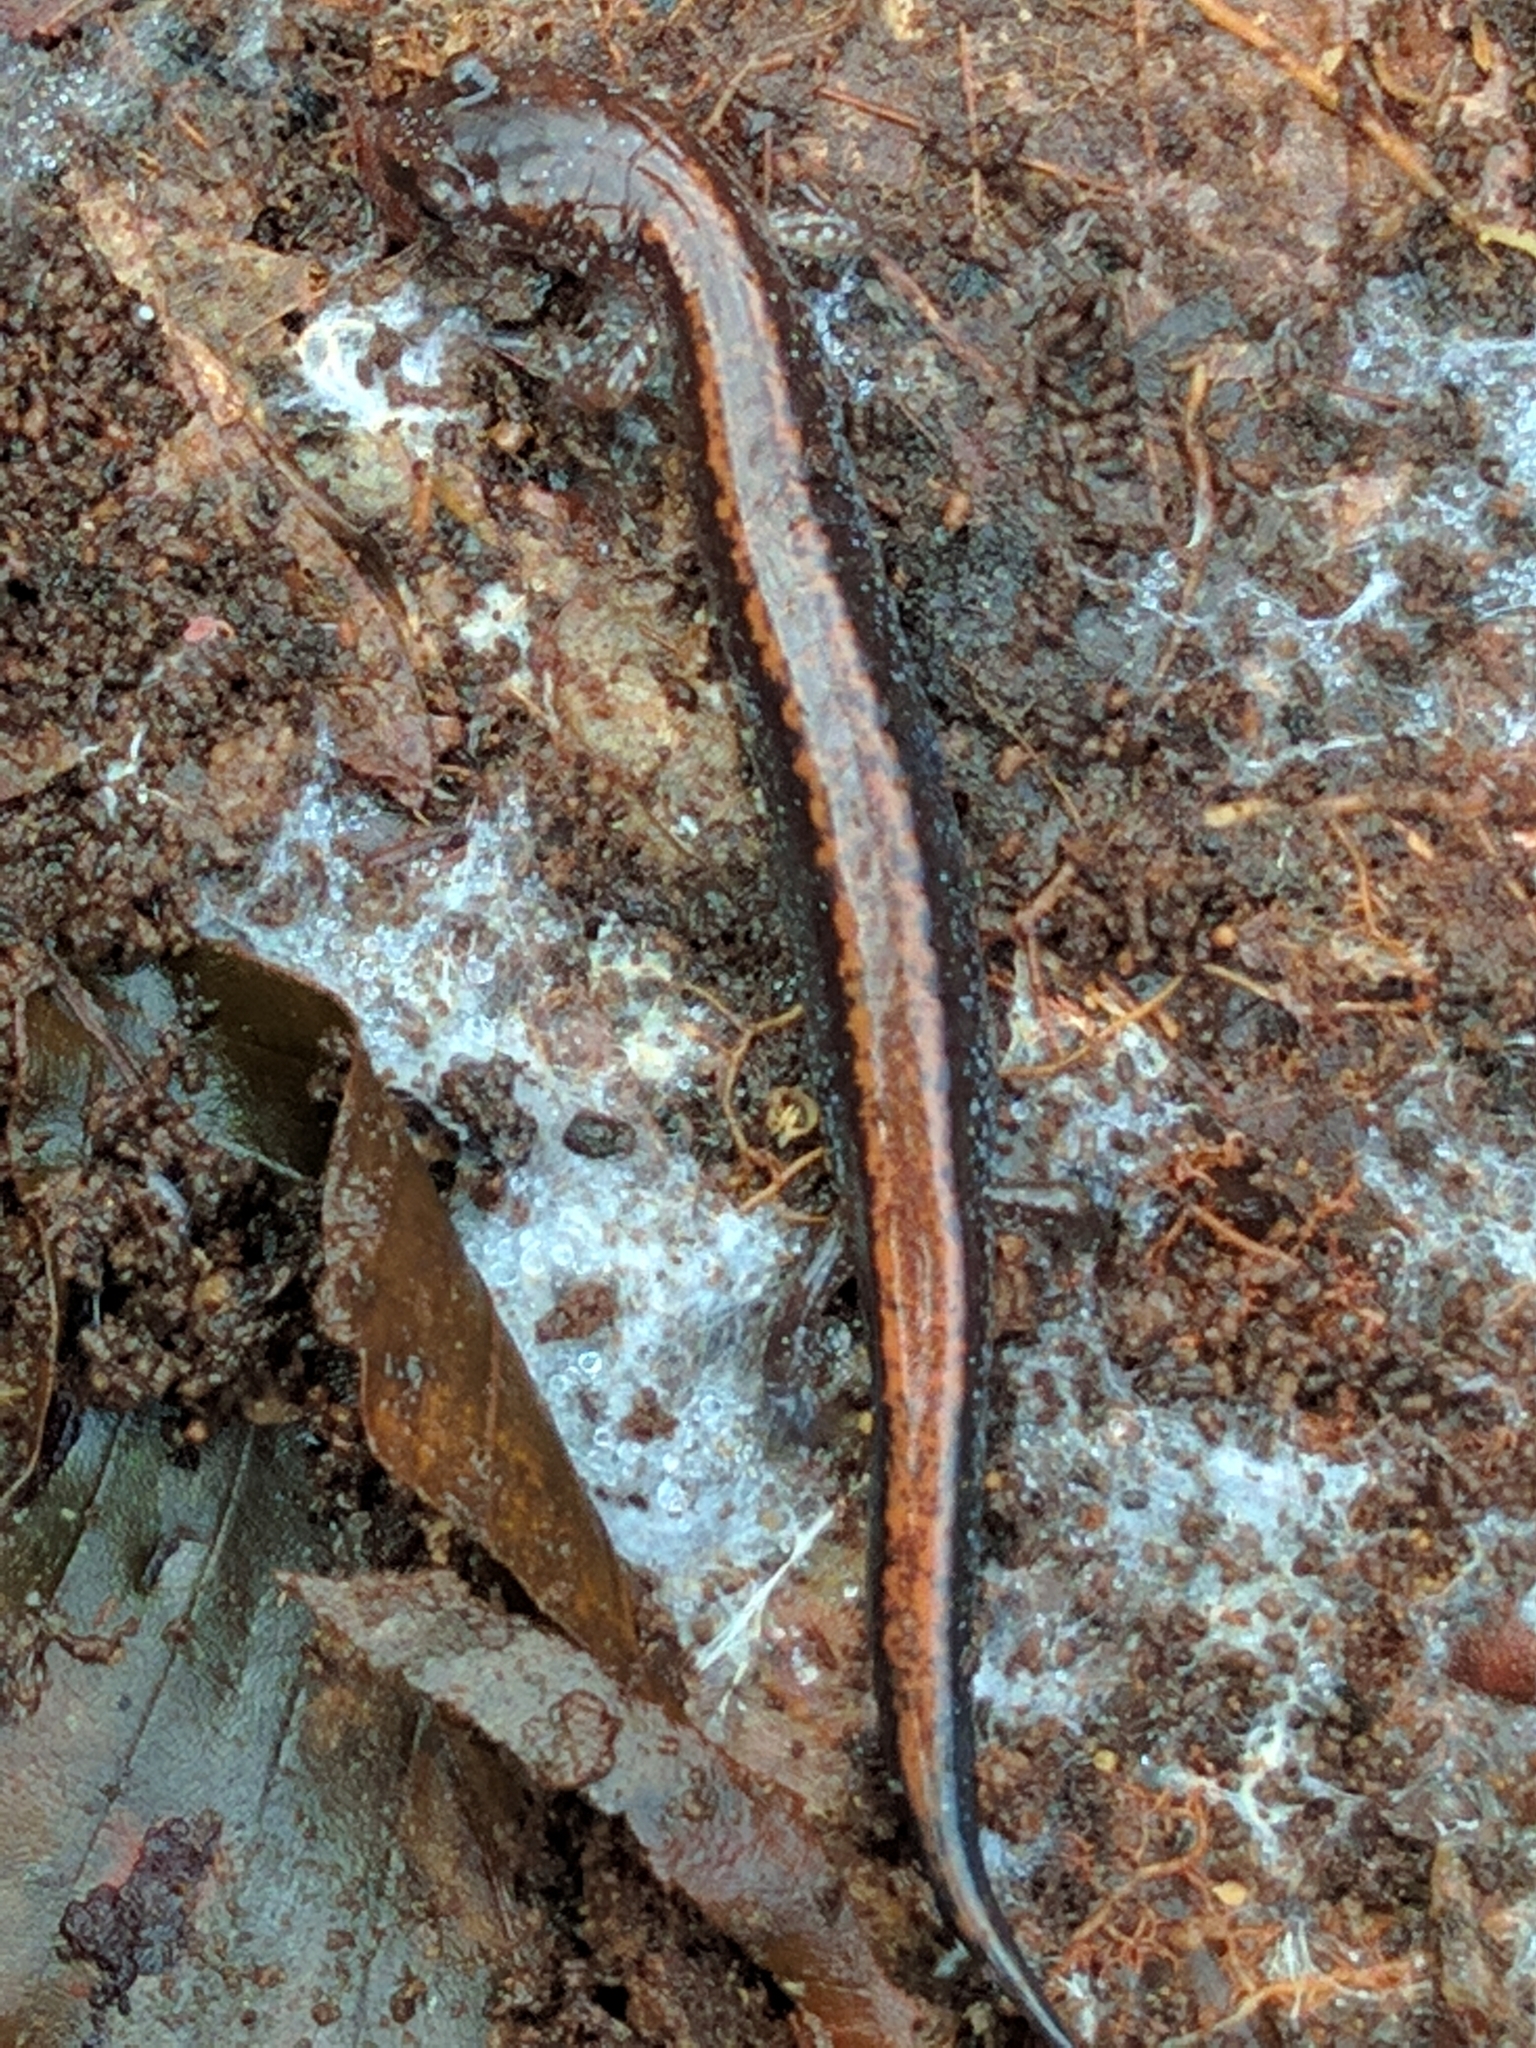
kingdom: Animalia
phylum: Chordata
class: Amphibia
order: Caudata
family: Plethodontidae
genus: Plethodon
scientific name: Plethodon cinereus
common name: Redback salamander
